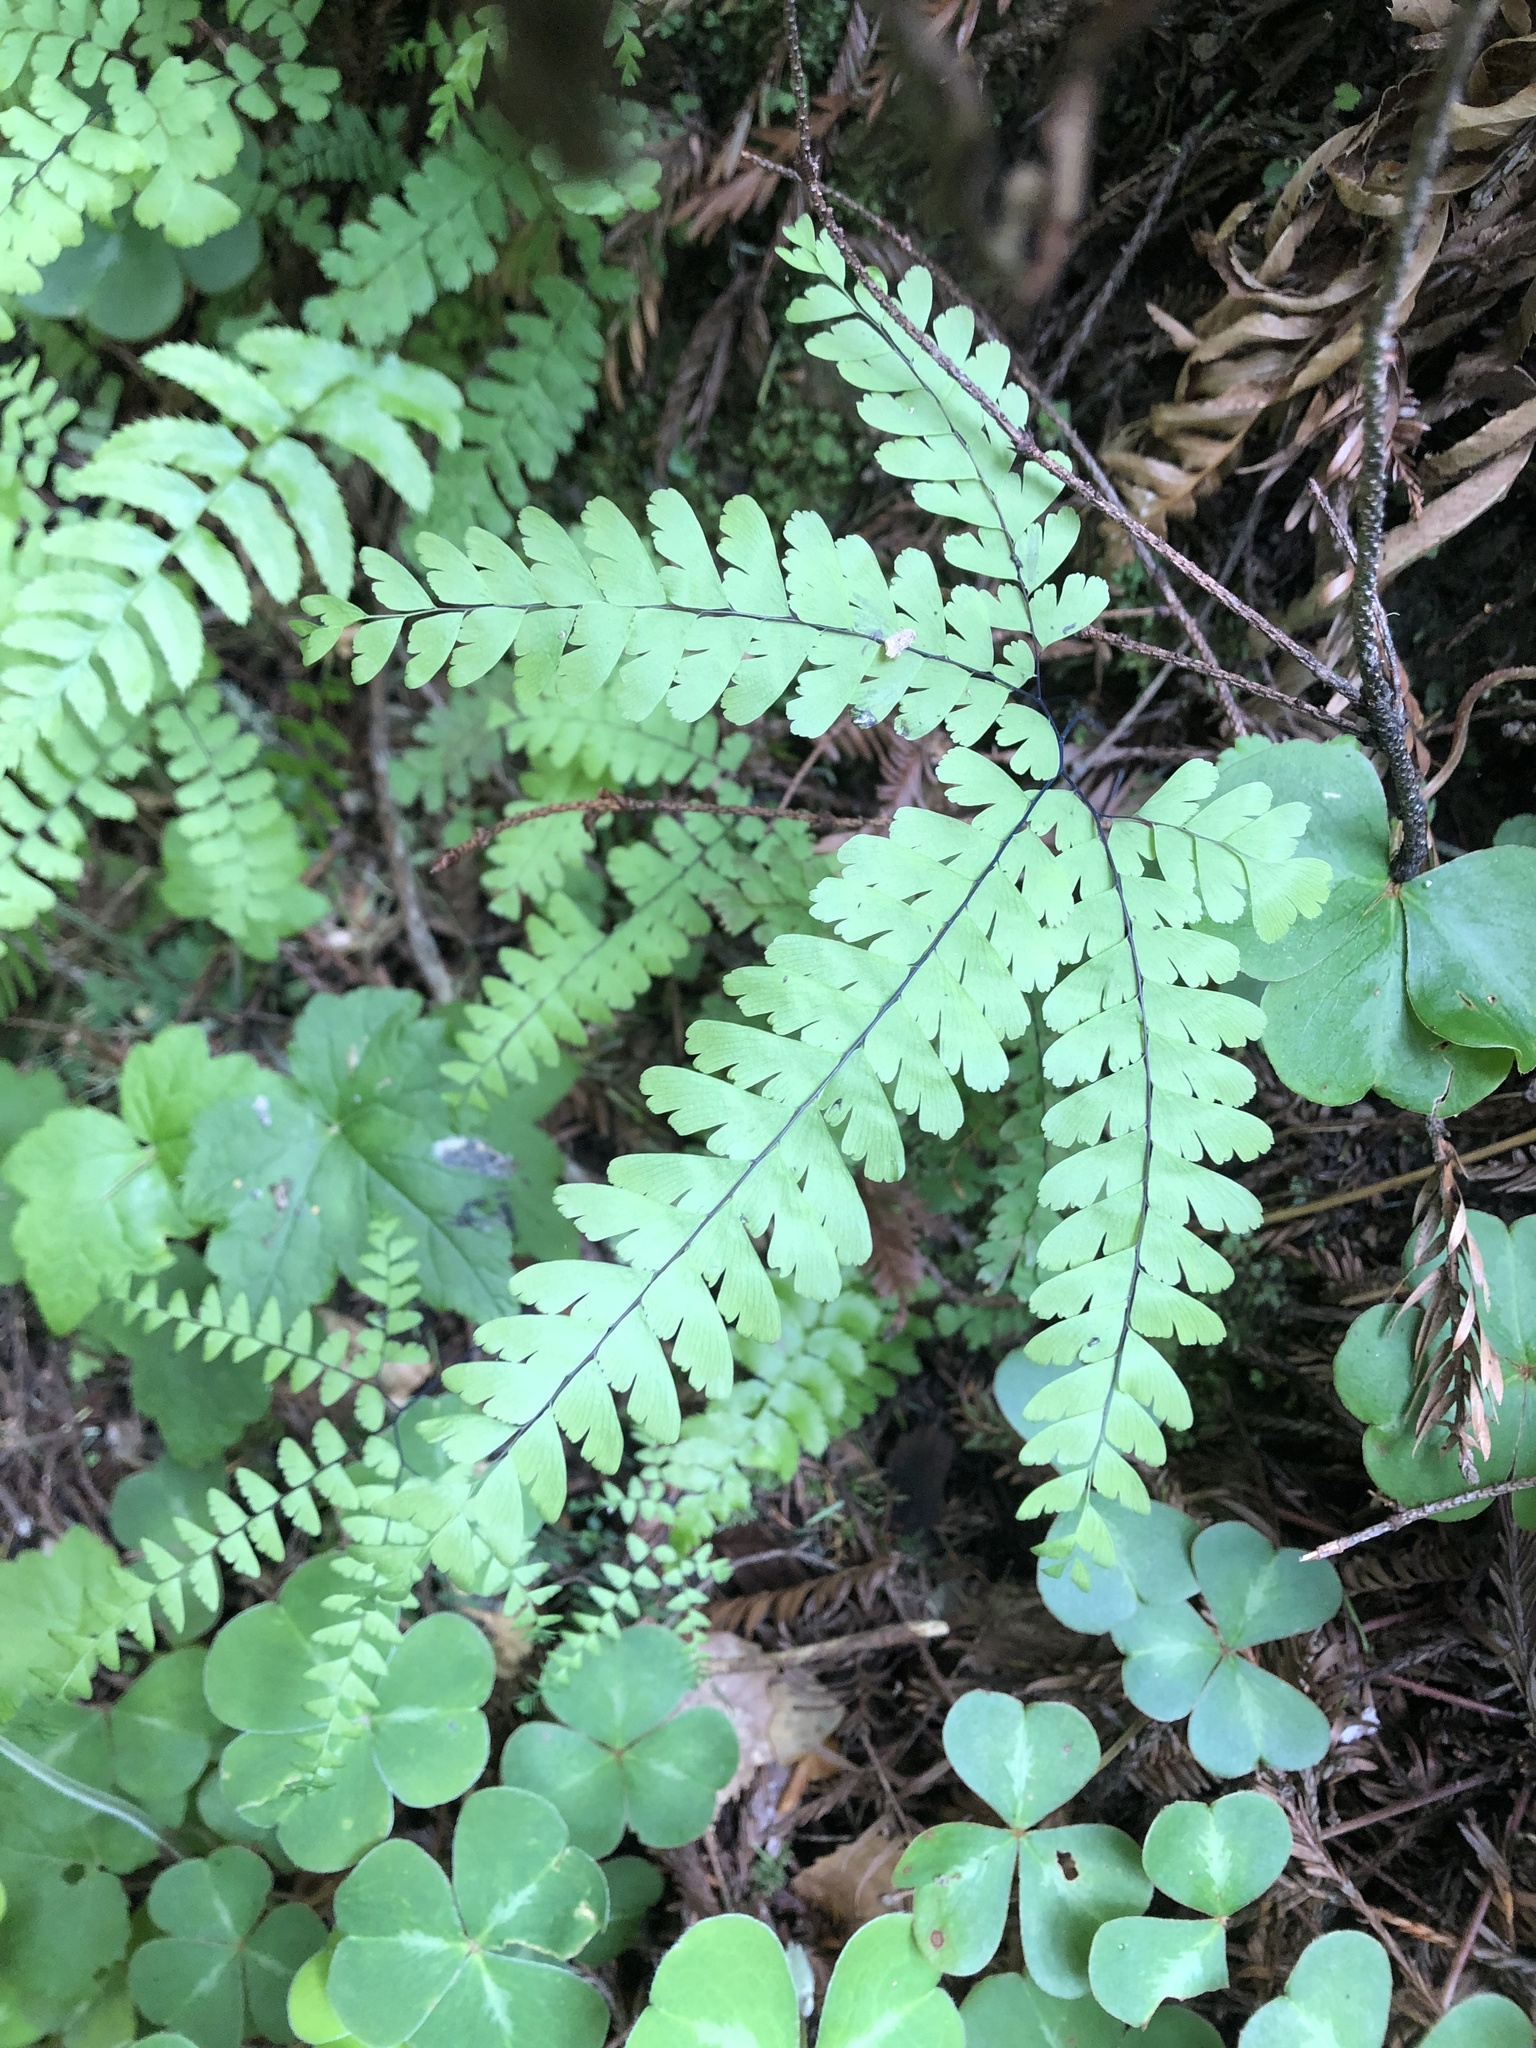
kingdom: Plantae
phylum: Tracheophyta
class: Polypodiopsida
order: Polypodiales
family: Pteridaceae
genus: Adiantum
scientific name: Adiantum aleuticum
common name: Aleutian maidenhair fern
